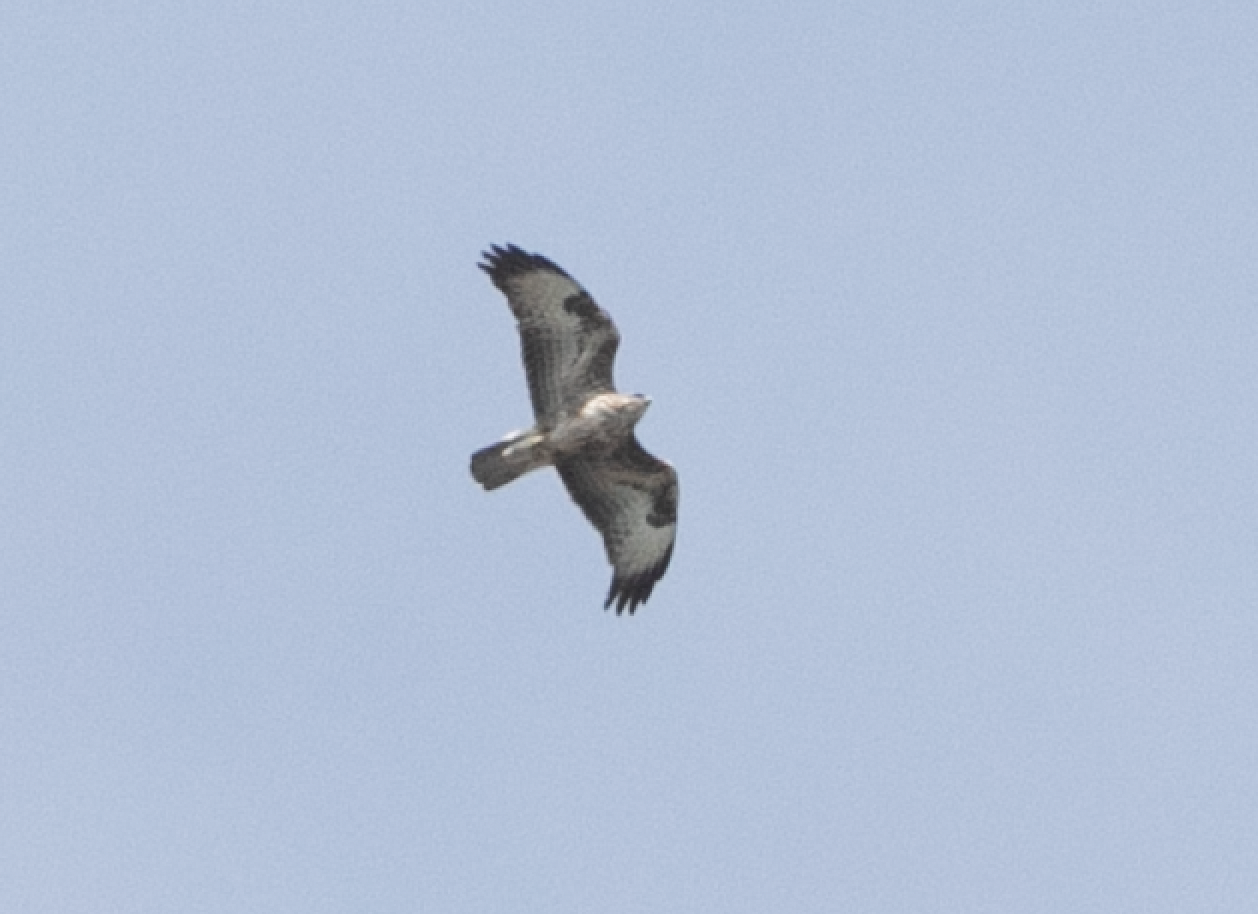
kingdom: Animalia
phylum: Chordata
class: Aves
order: Accipitriformes
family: Accipitridae
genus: Buteo
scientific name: Buteo buteo
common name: Common buzzard
